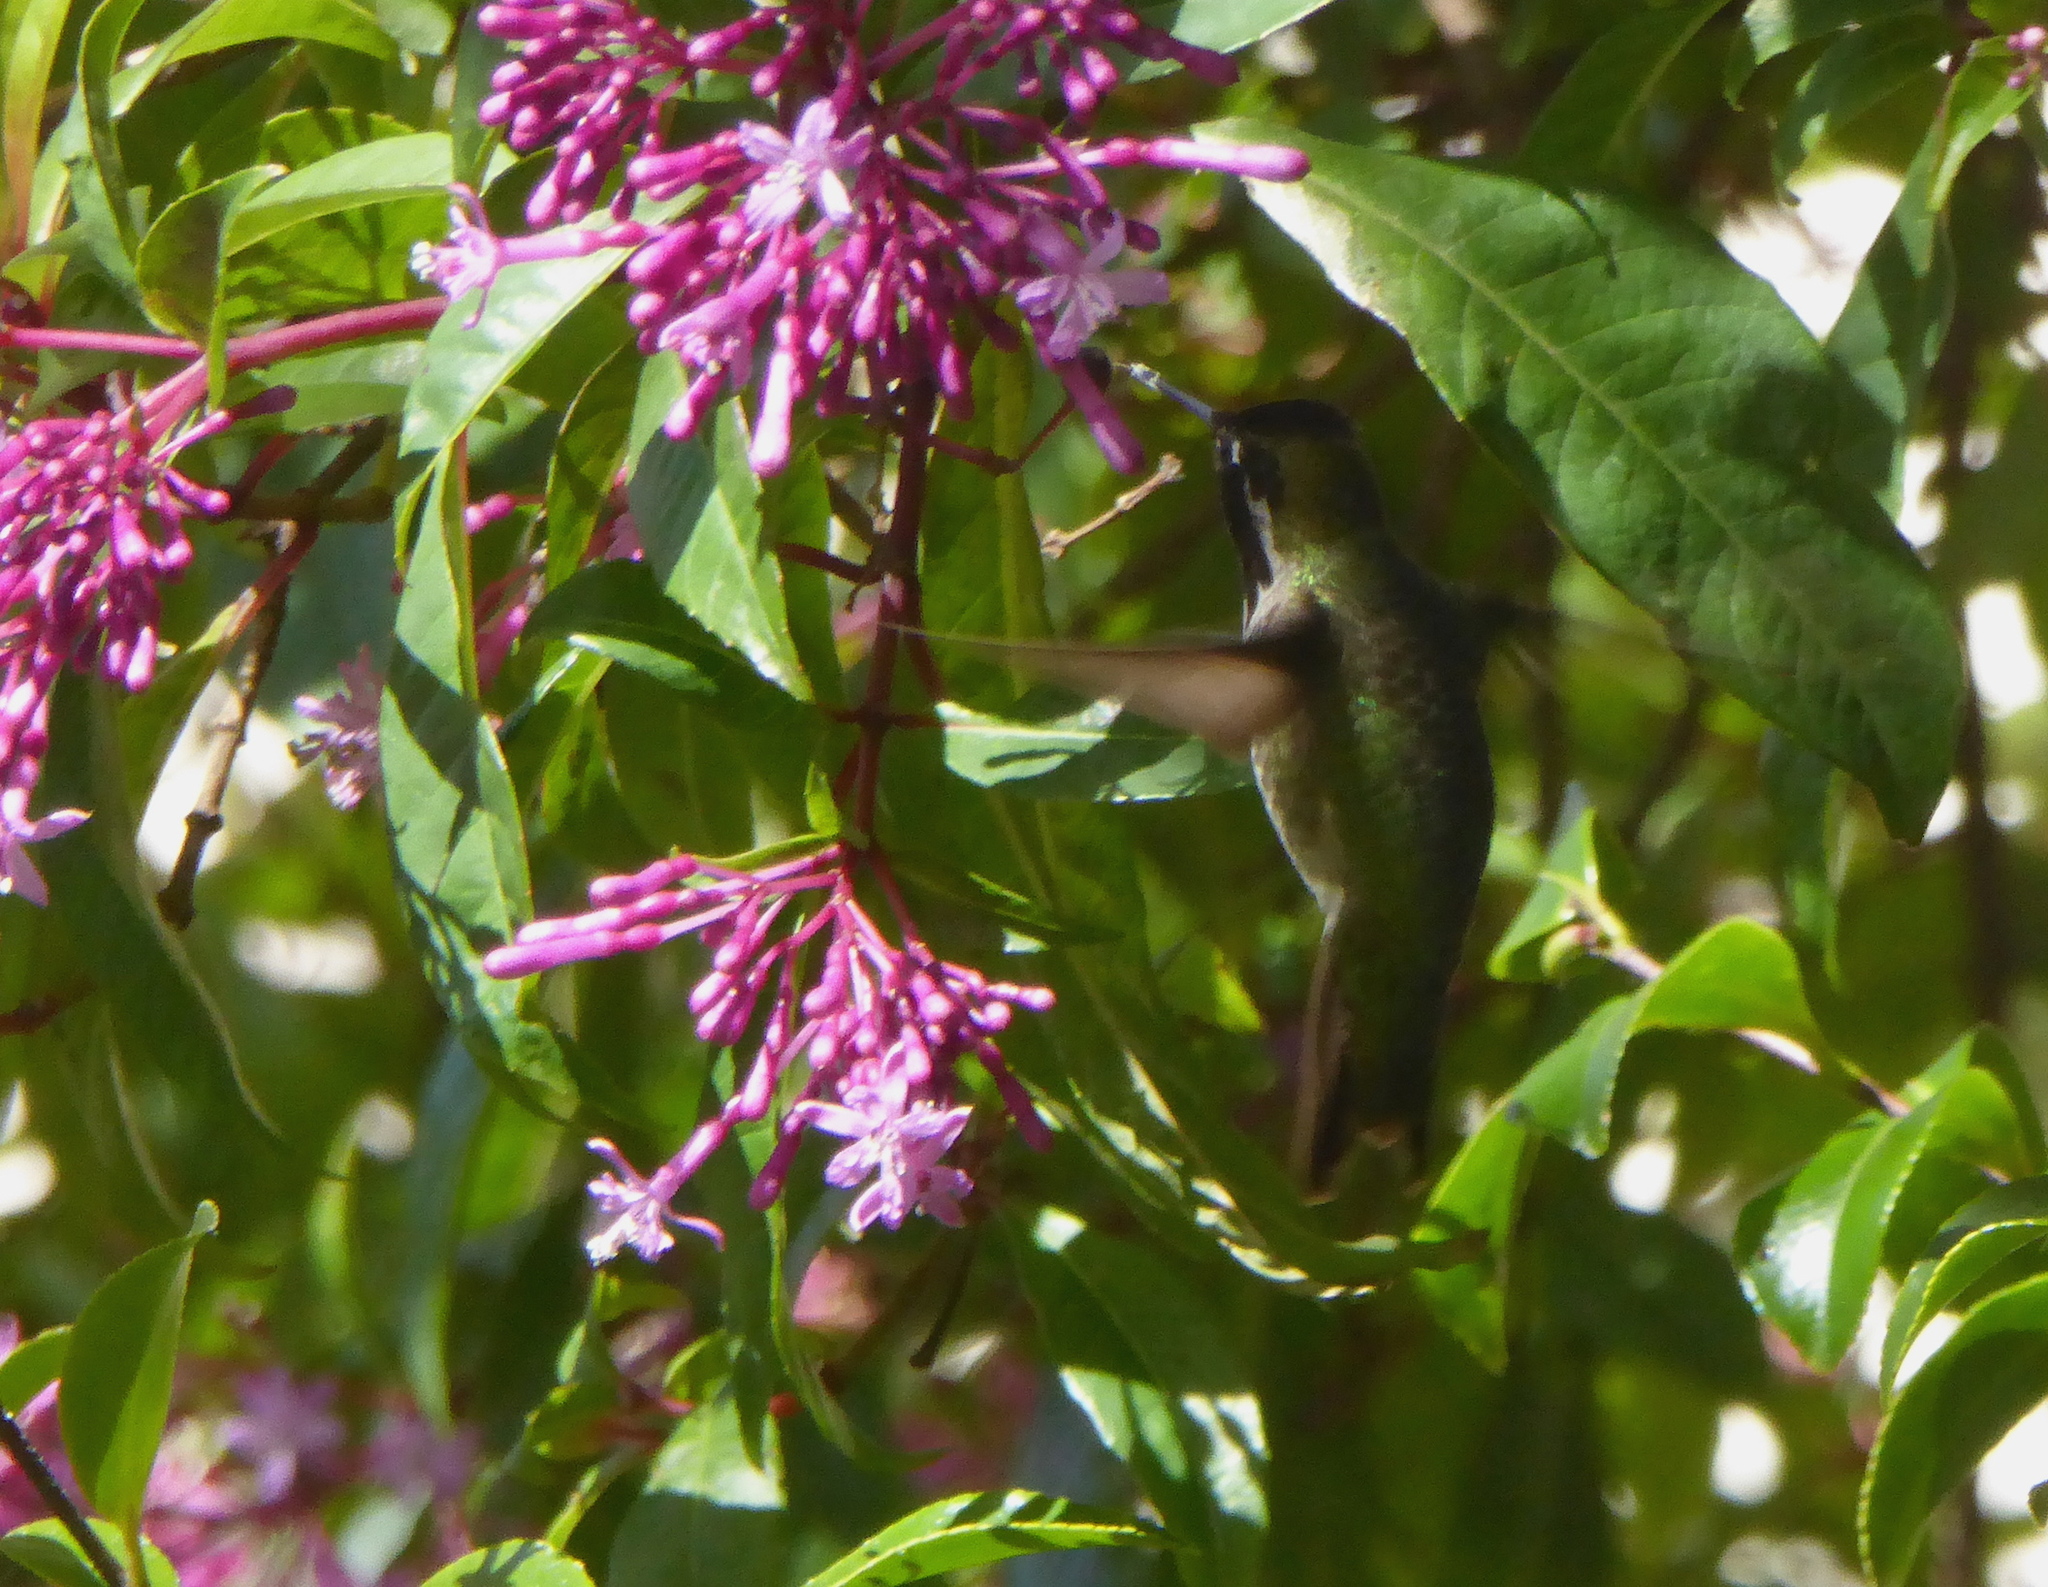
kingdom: Animalia
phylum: Chordata
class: Aves
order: Apodiformes
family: Trochilidae
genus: Calypte
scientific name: Calypte anna
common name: Anna's hummingbird
